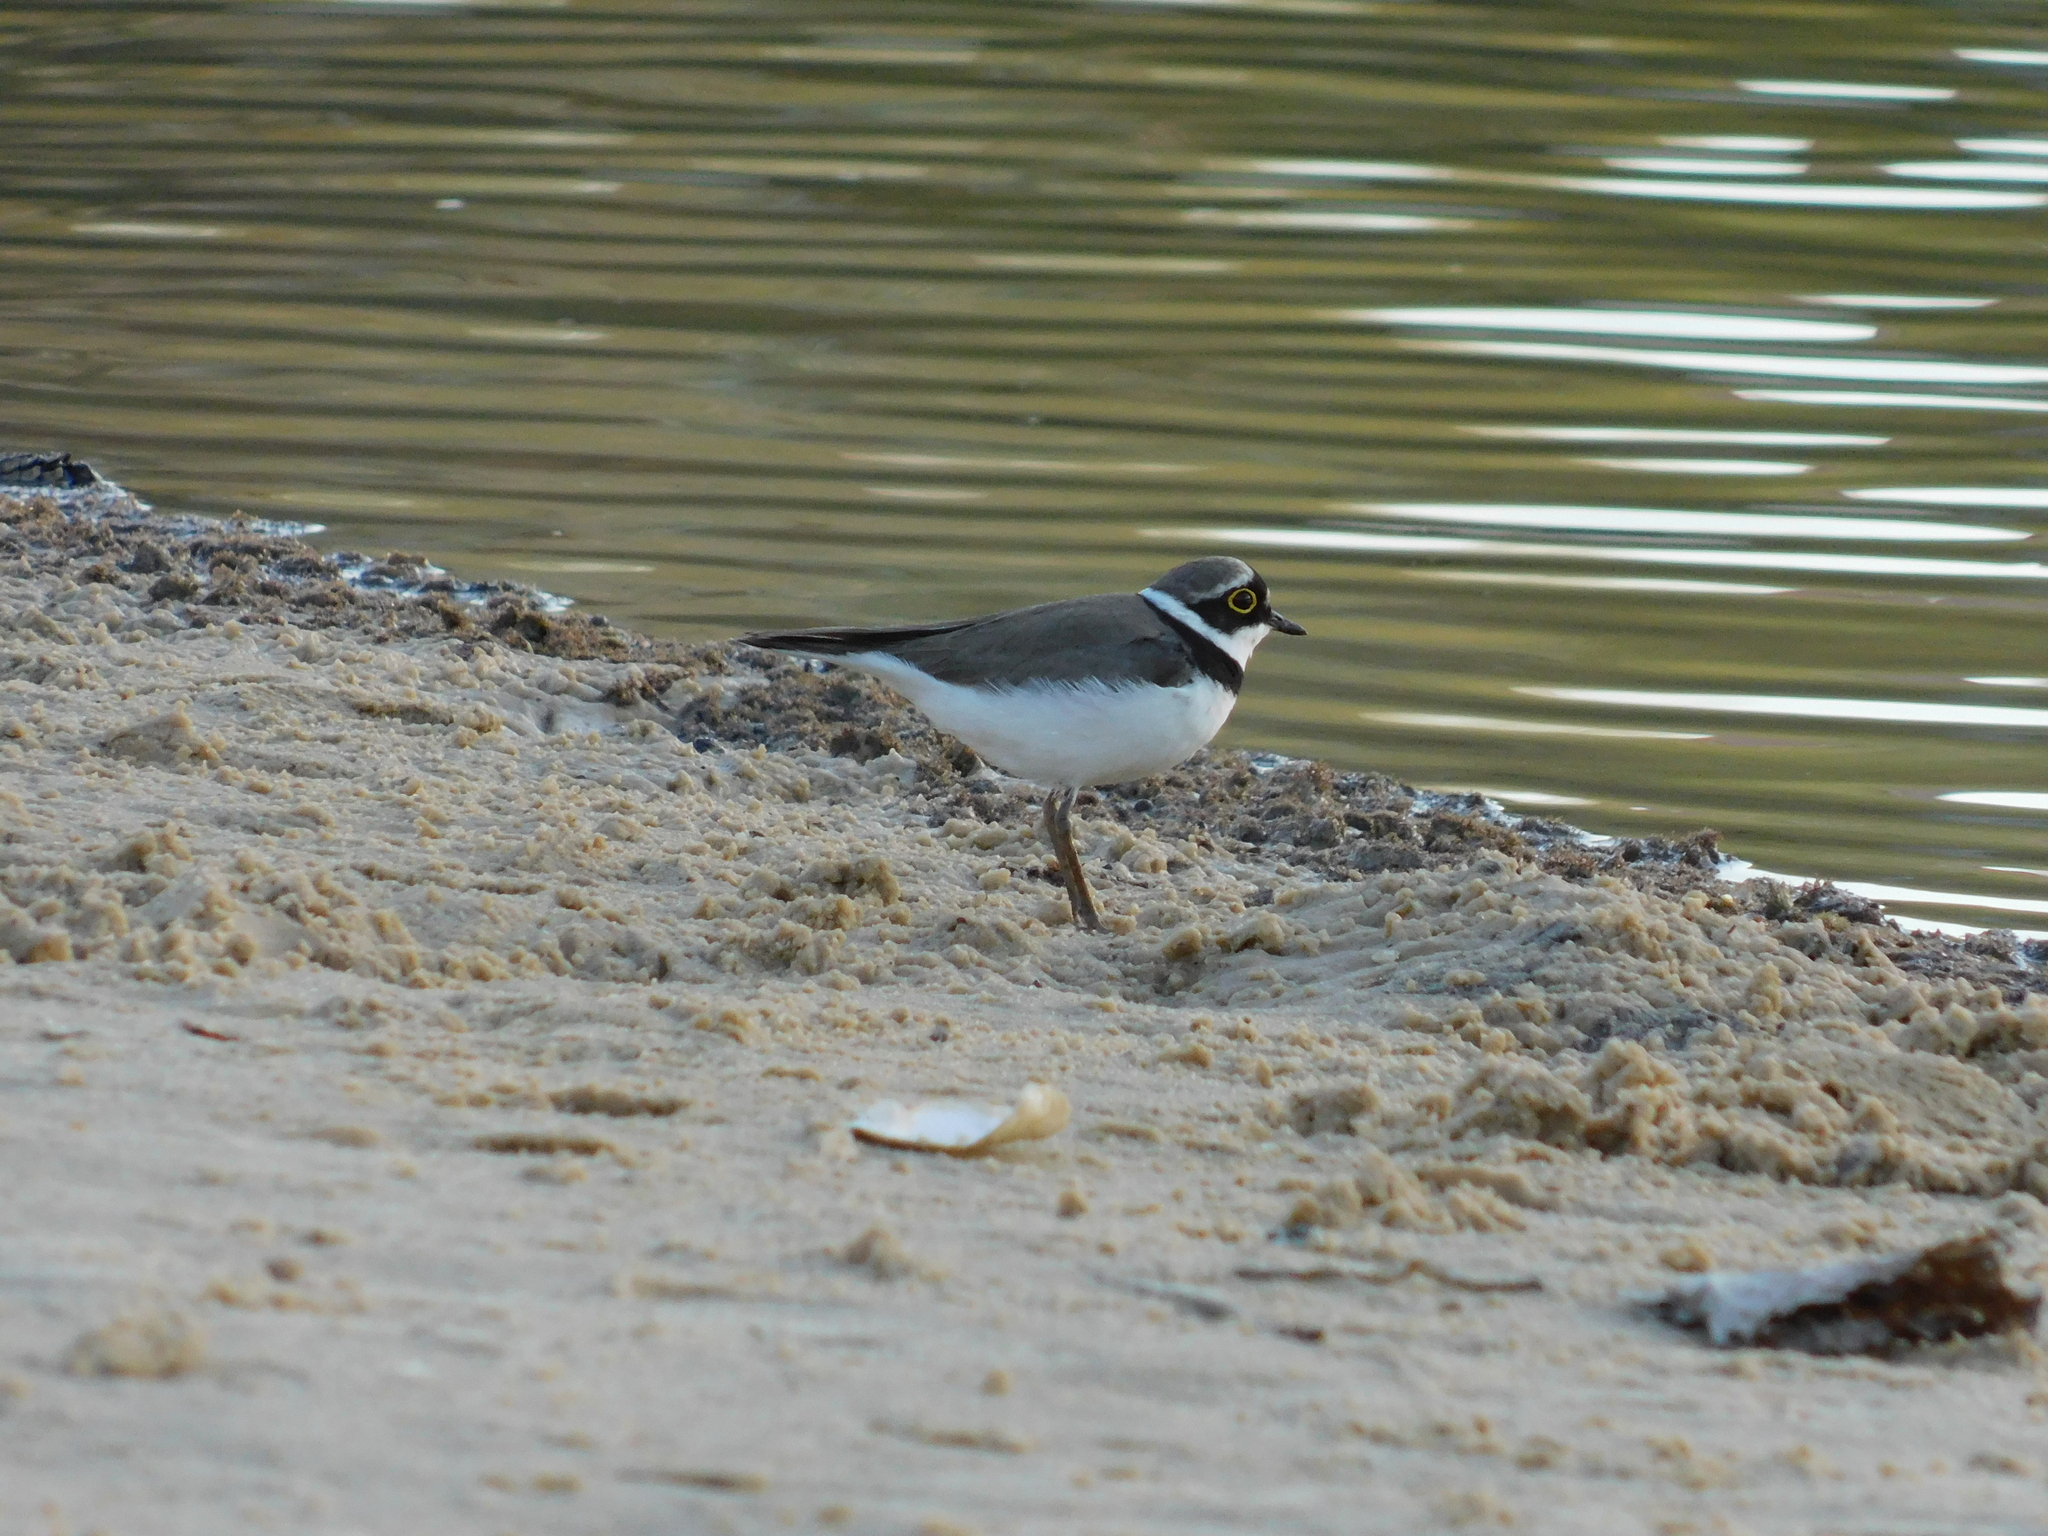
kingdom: Animalia
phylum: Chordata
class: Aves
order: Charadriiformes
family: Charadriidae
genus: Charadrius
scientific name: Charadrius dubius
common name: Little ringed plover
